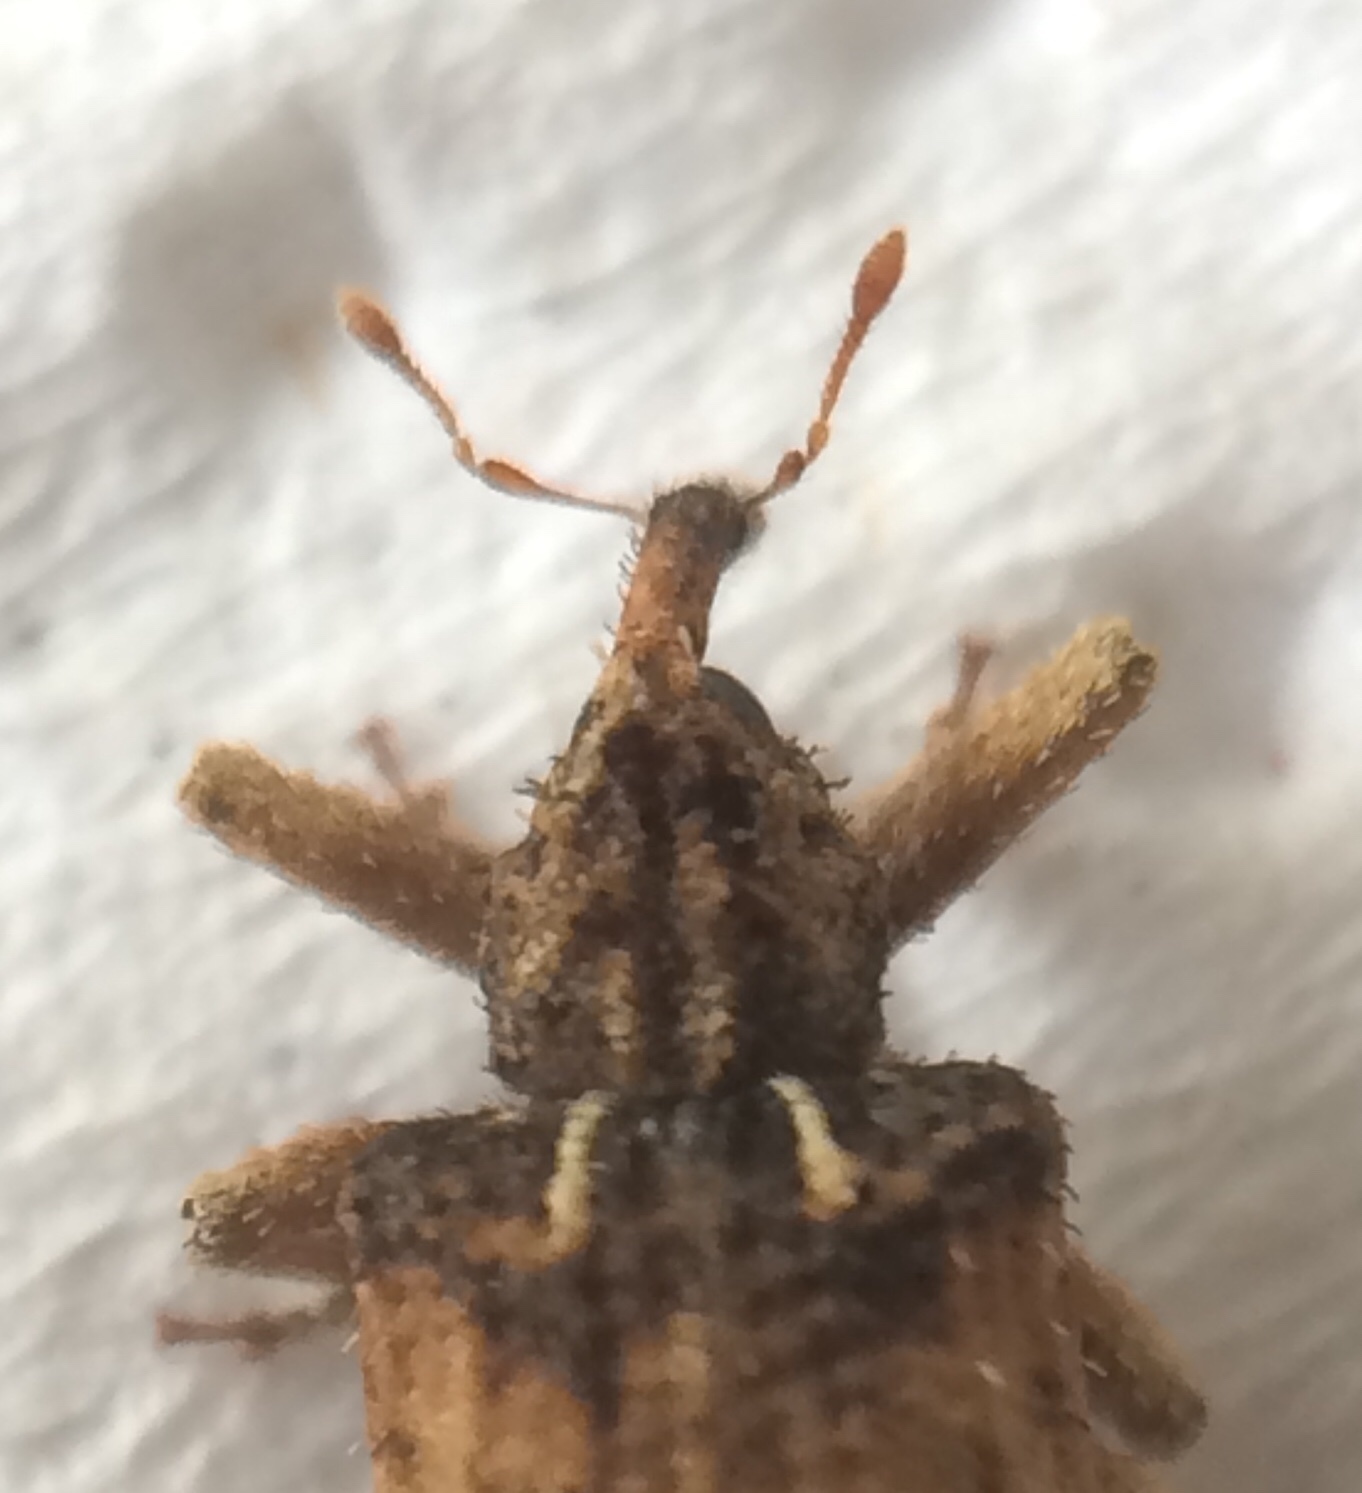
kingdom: Animalia
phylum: Arthropoda
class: Insecta
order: Coleoptera
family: Curculionidae
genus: Phyrdenus
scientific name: Phyrdenus divergens
